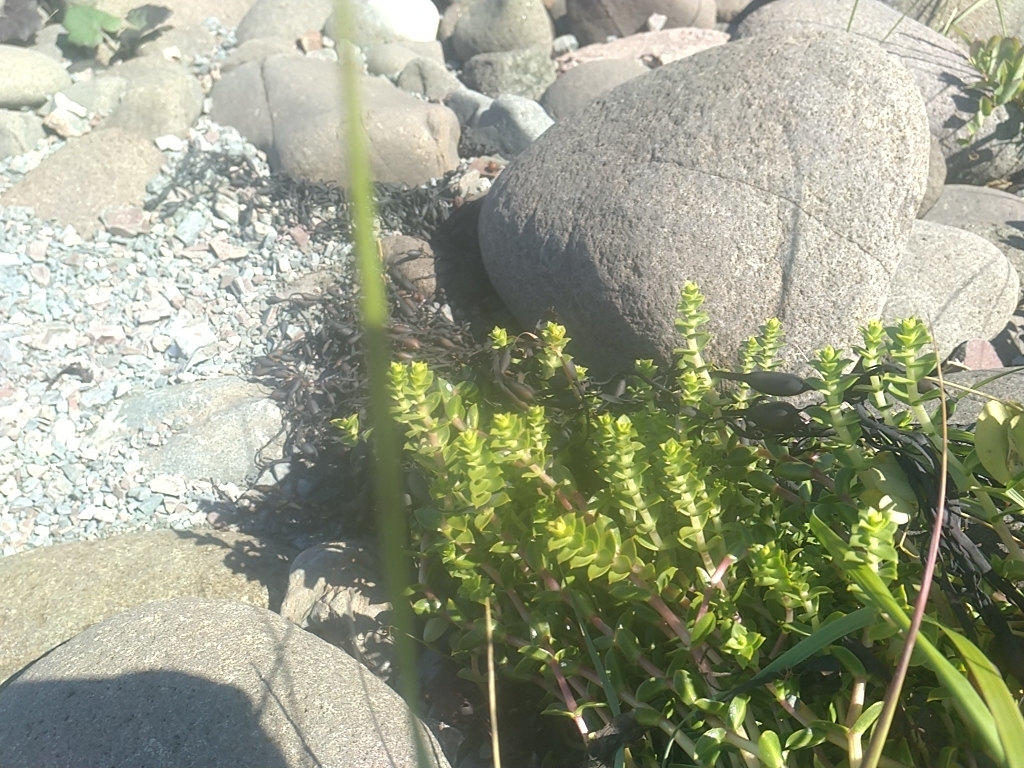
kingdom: Plantae
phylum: Tracheophyta
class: Magnoliopsida
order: Caryophyllales
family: Caryophyllaceae
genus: Honckenya
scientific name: Honckenya peploides
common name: Sea sandwort
